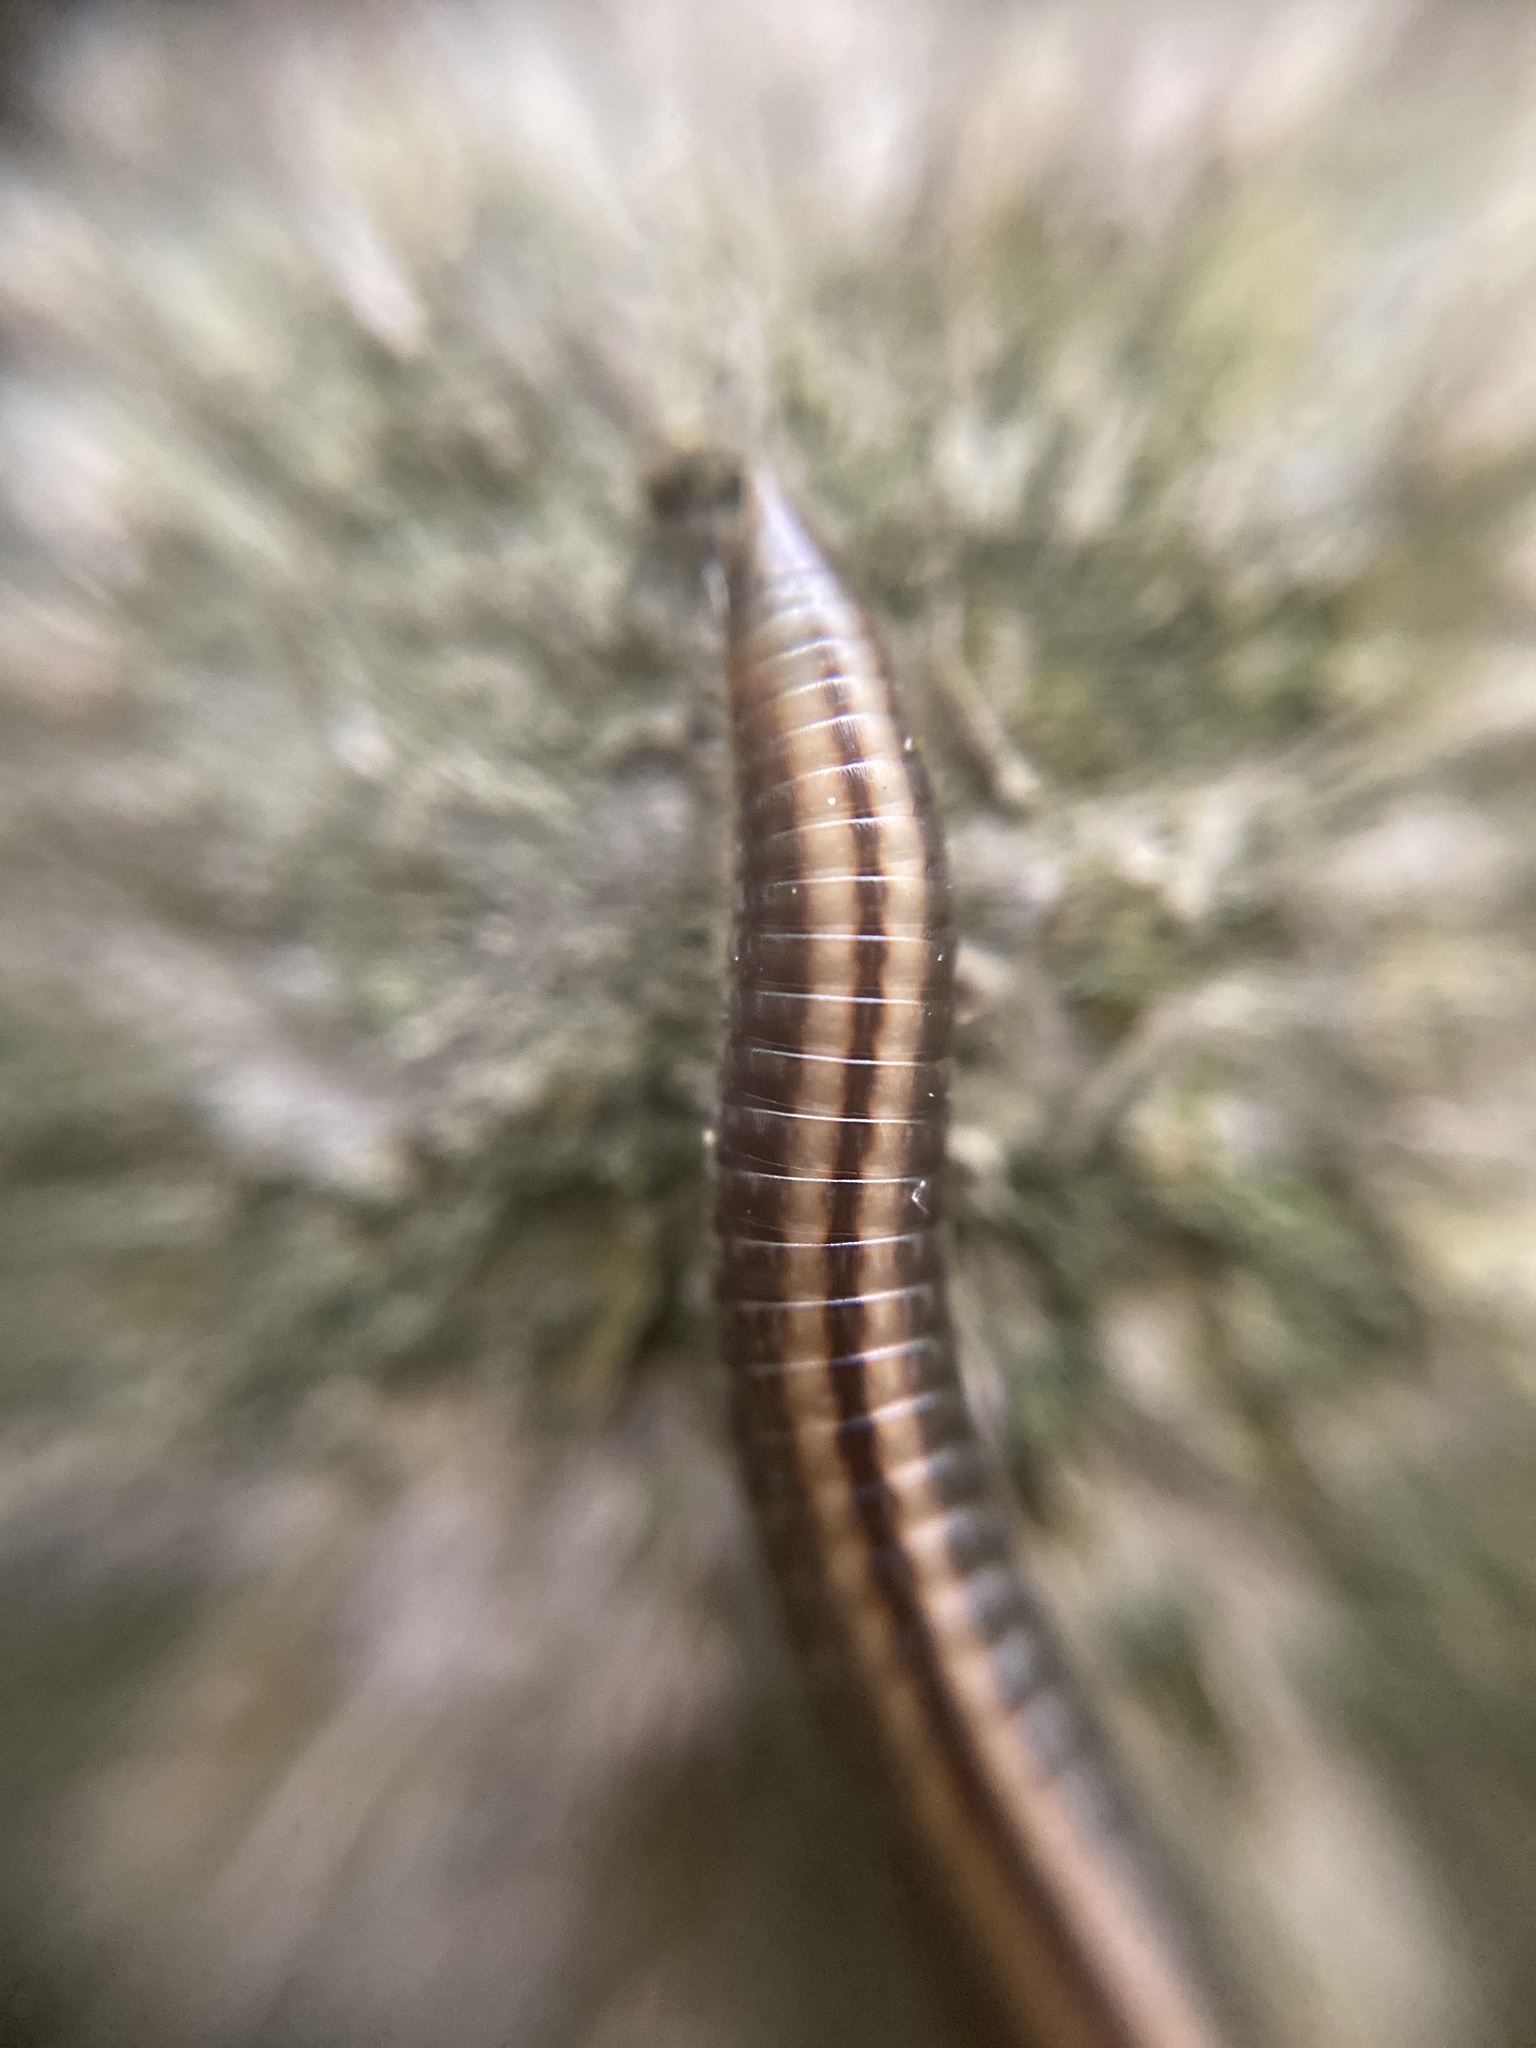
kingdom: Animalia
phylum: Arthropoda
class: Diplopoda
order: Julida
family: Julidae
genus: Ommatoiulus
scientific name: Ommatoiulus sabulosus
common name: Striped millipede
